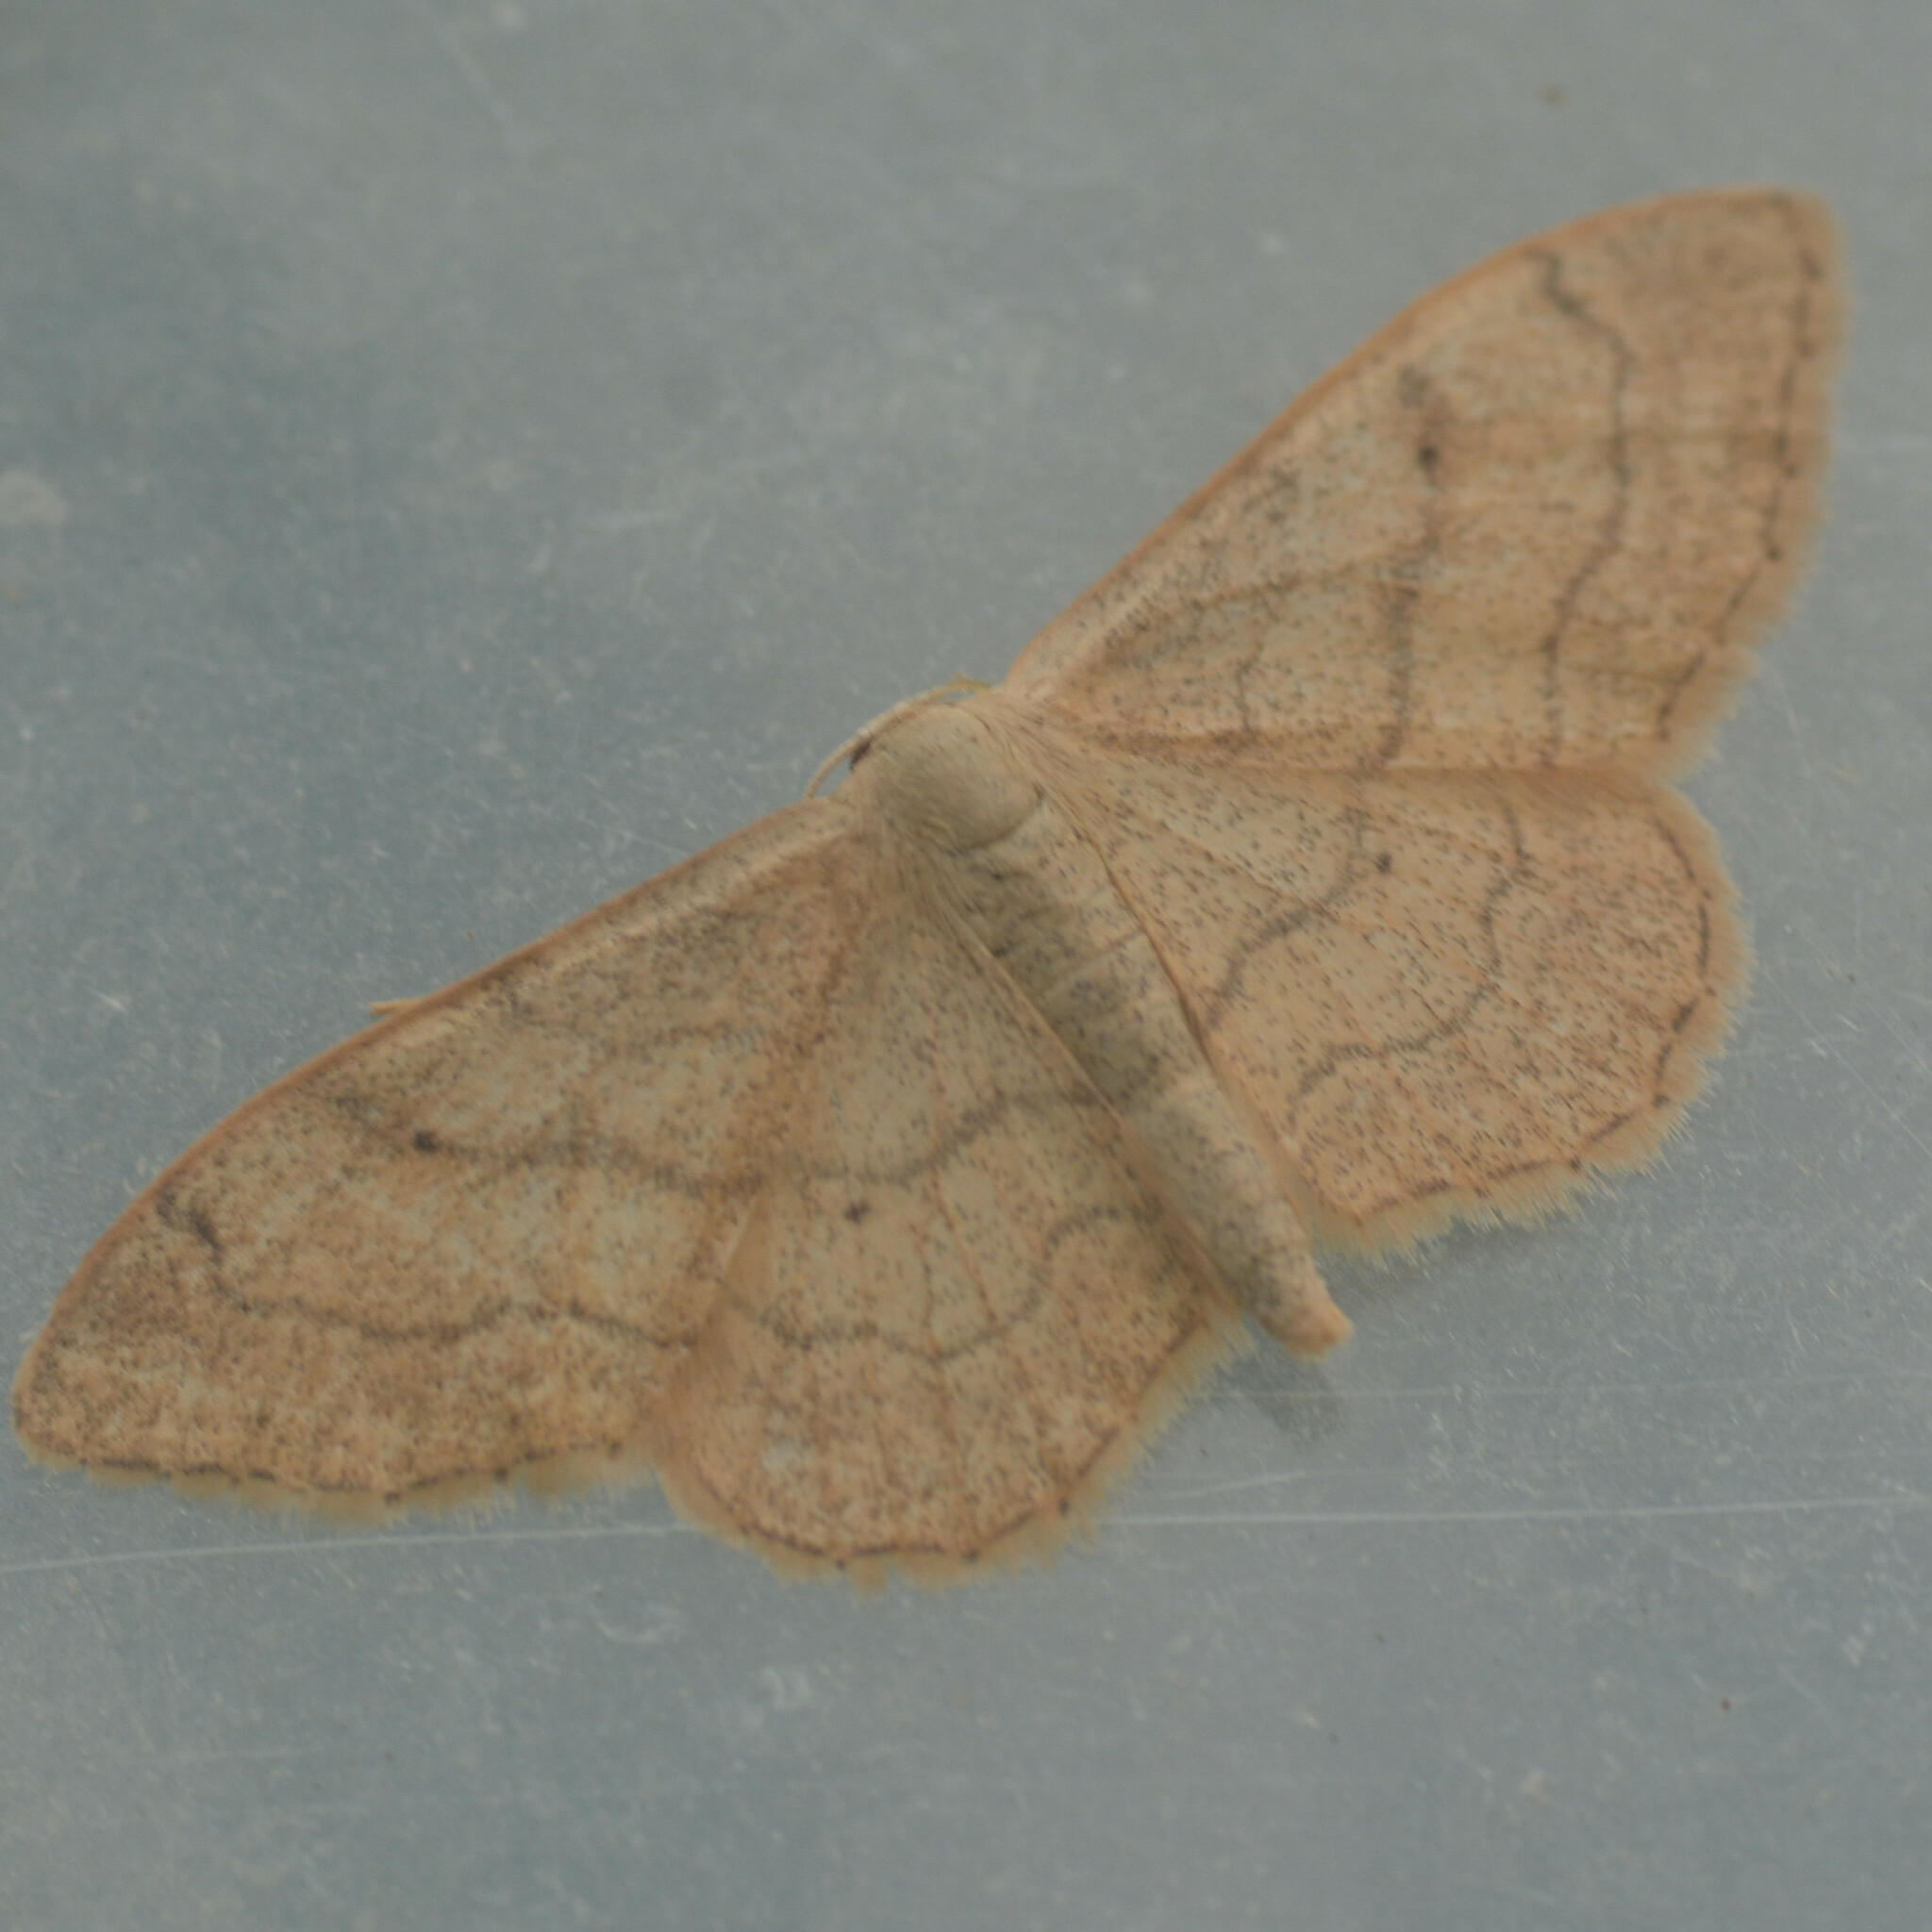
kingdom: Animalia
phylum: Arthropoda
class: Insecta
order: Lepidoptera
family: Geometridae
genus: Idaea
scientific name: Idaea aversata
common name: Riband wave
